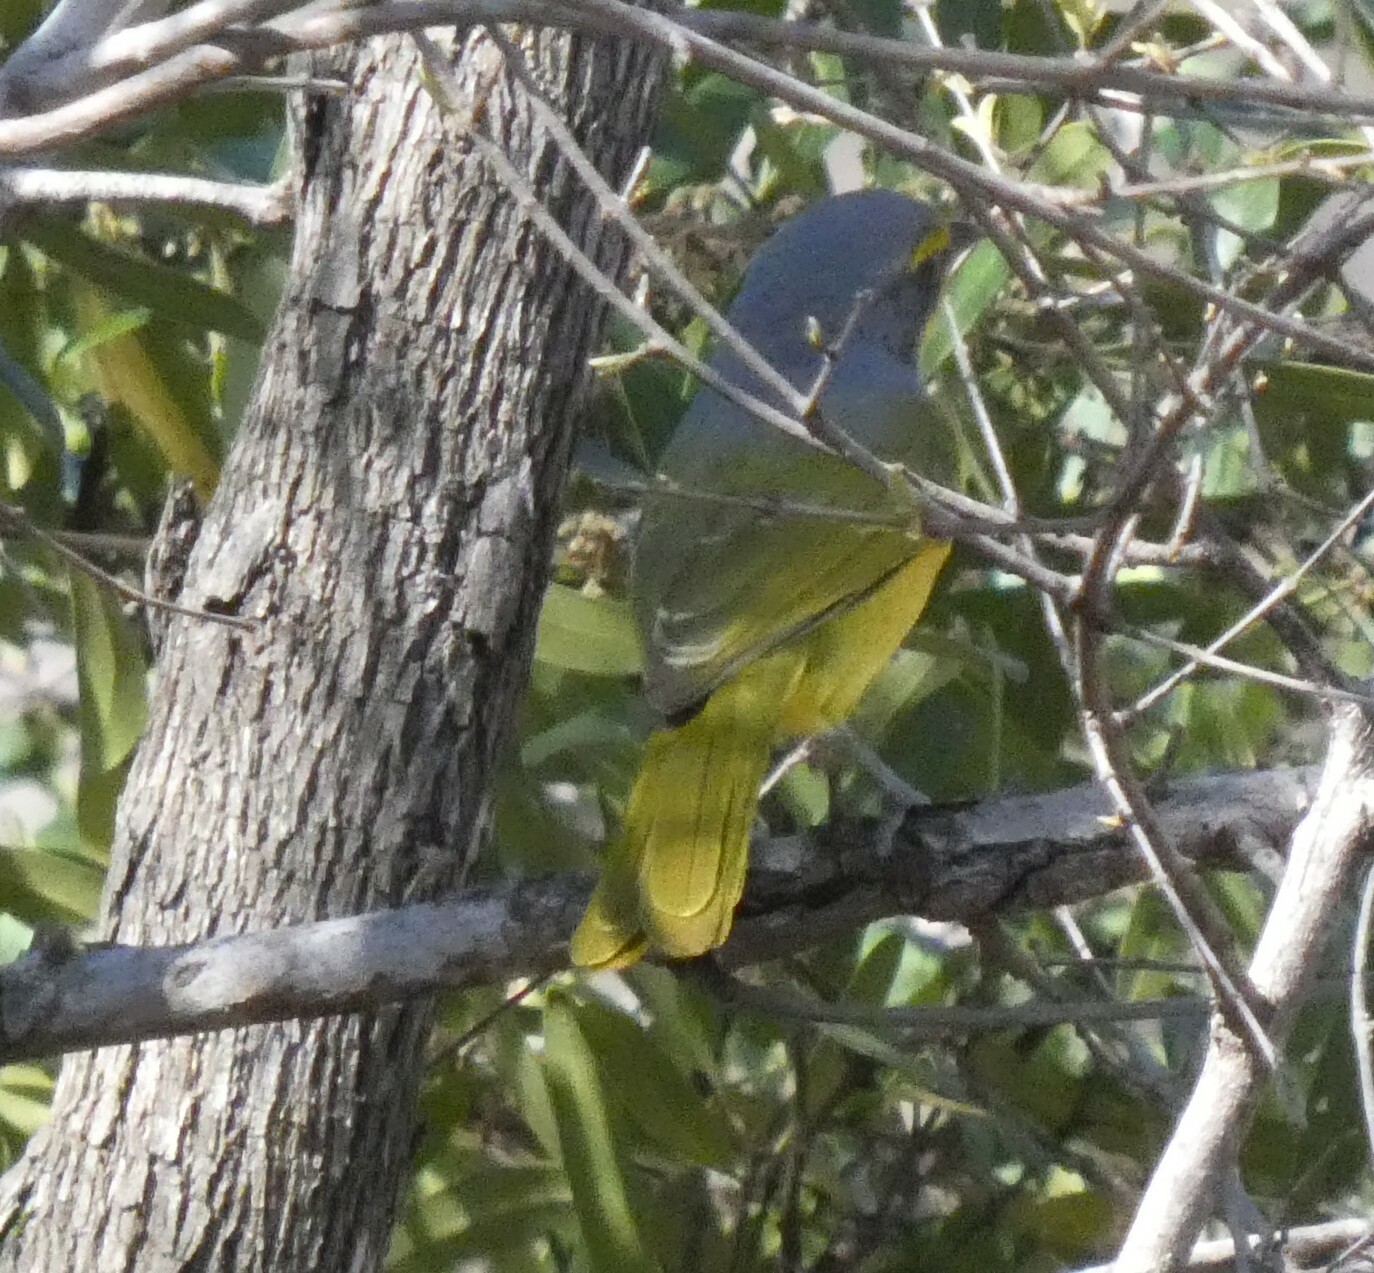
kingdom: Animalia
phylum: Chordata
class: Aves
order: Passeriformes
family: Malaconotidae
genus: Chlorophoneus
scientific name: Chlorophoneus sulfureopectus
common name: Orange-breasted bushshrike
